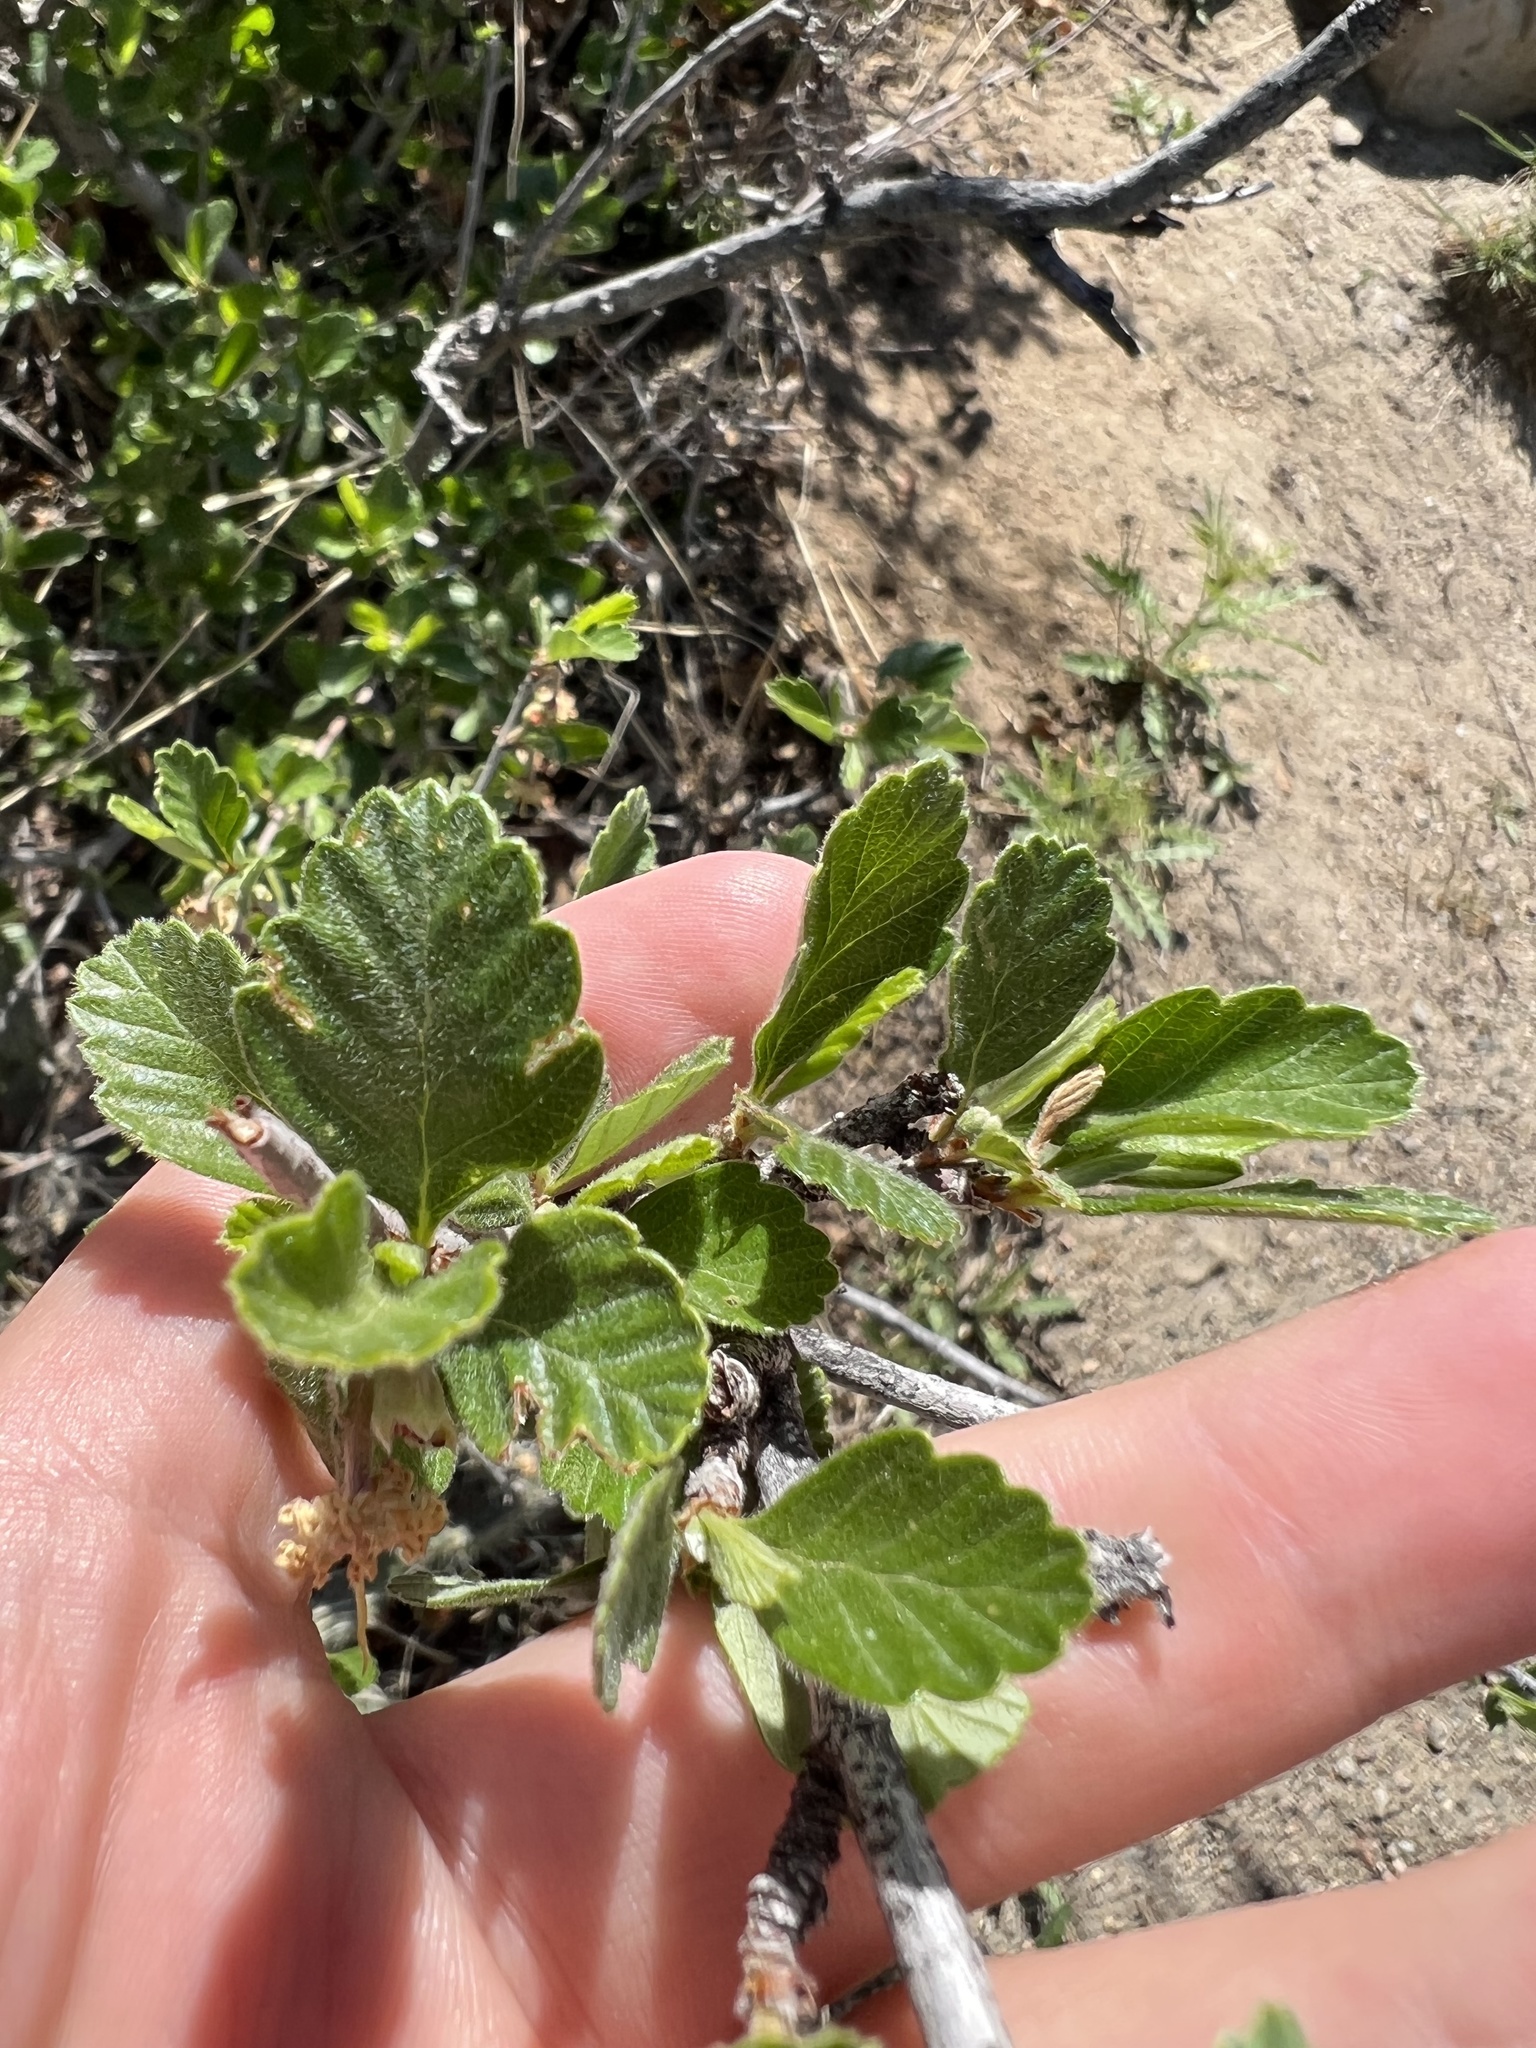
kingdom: Plantae
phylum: Tracheophyta
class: Magnoliopsida
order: Rosales
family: Rosaceae
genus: Cercocarpus
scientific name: Cercocarpus montanus
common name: Alder-leaf cercocarpus
